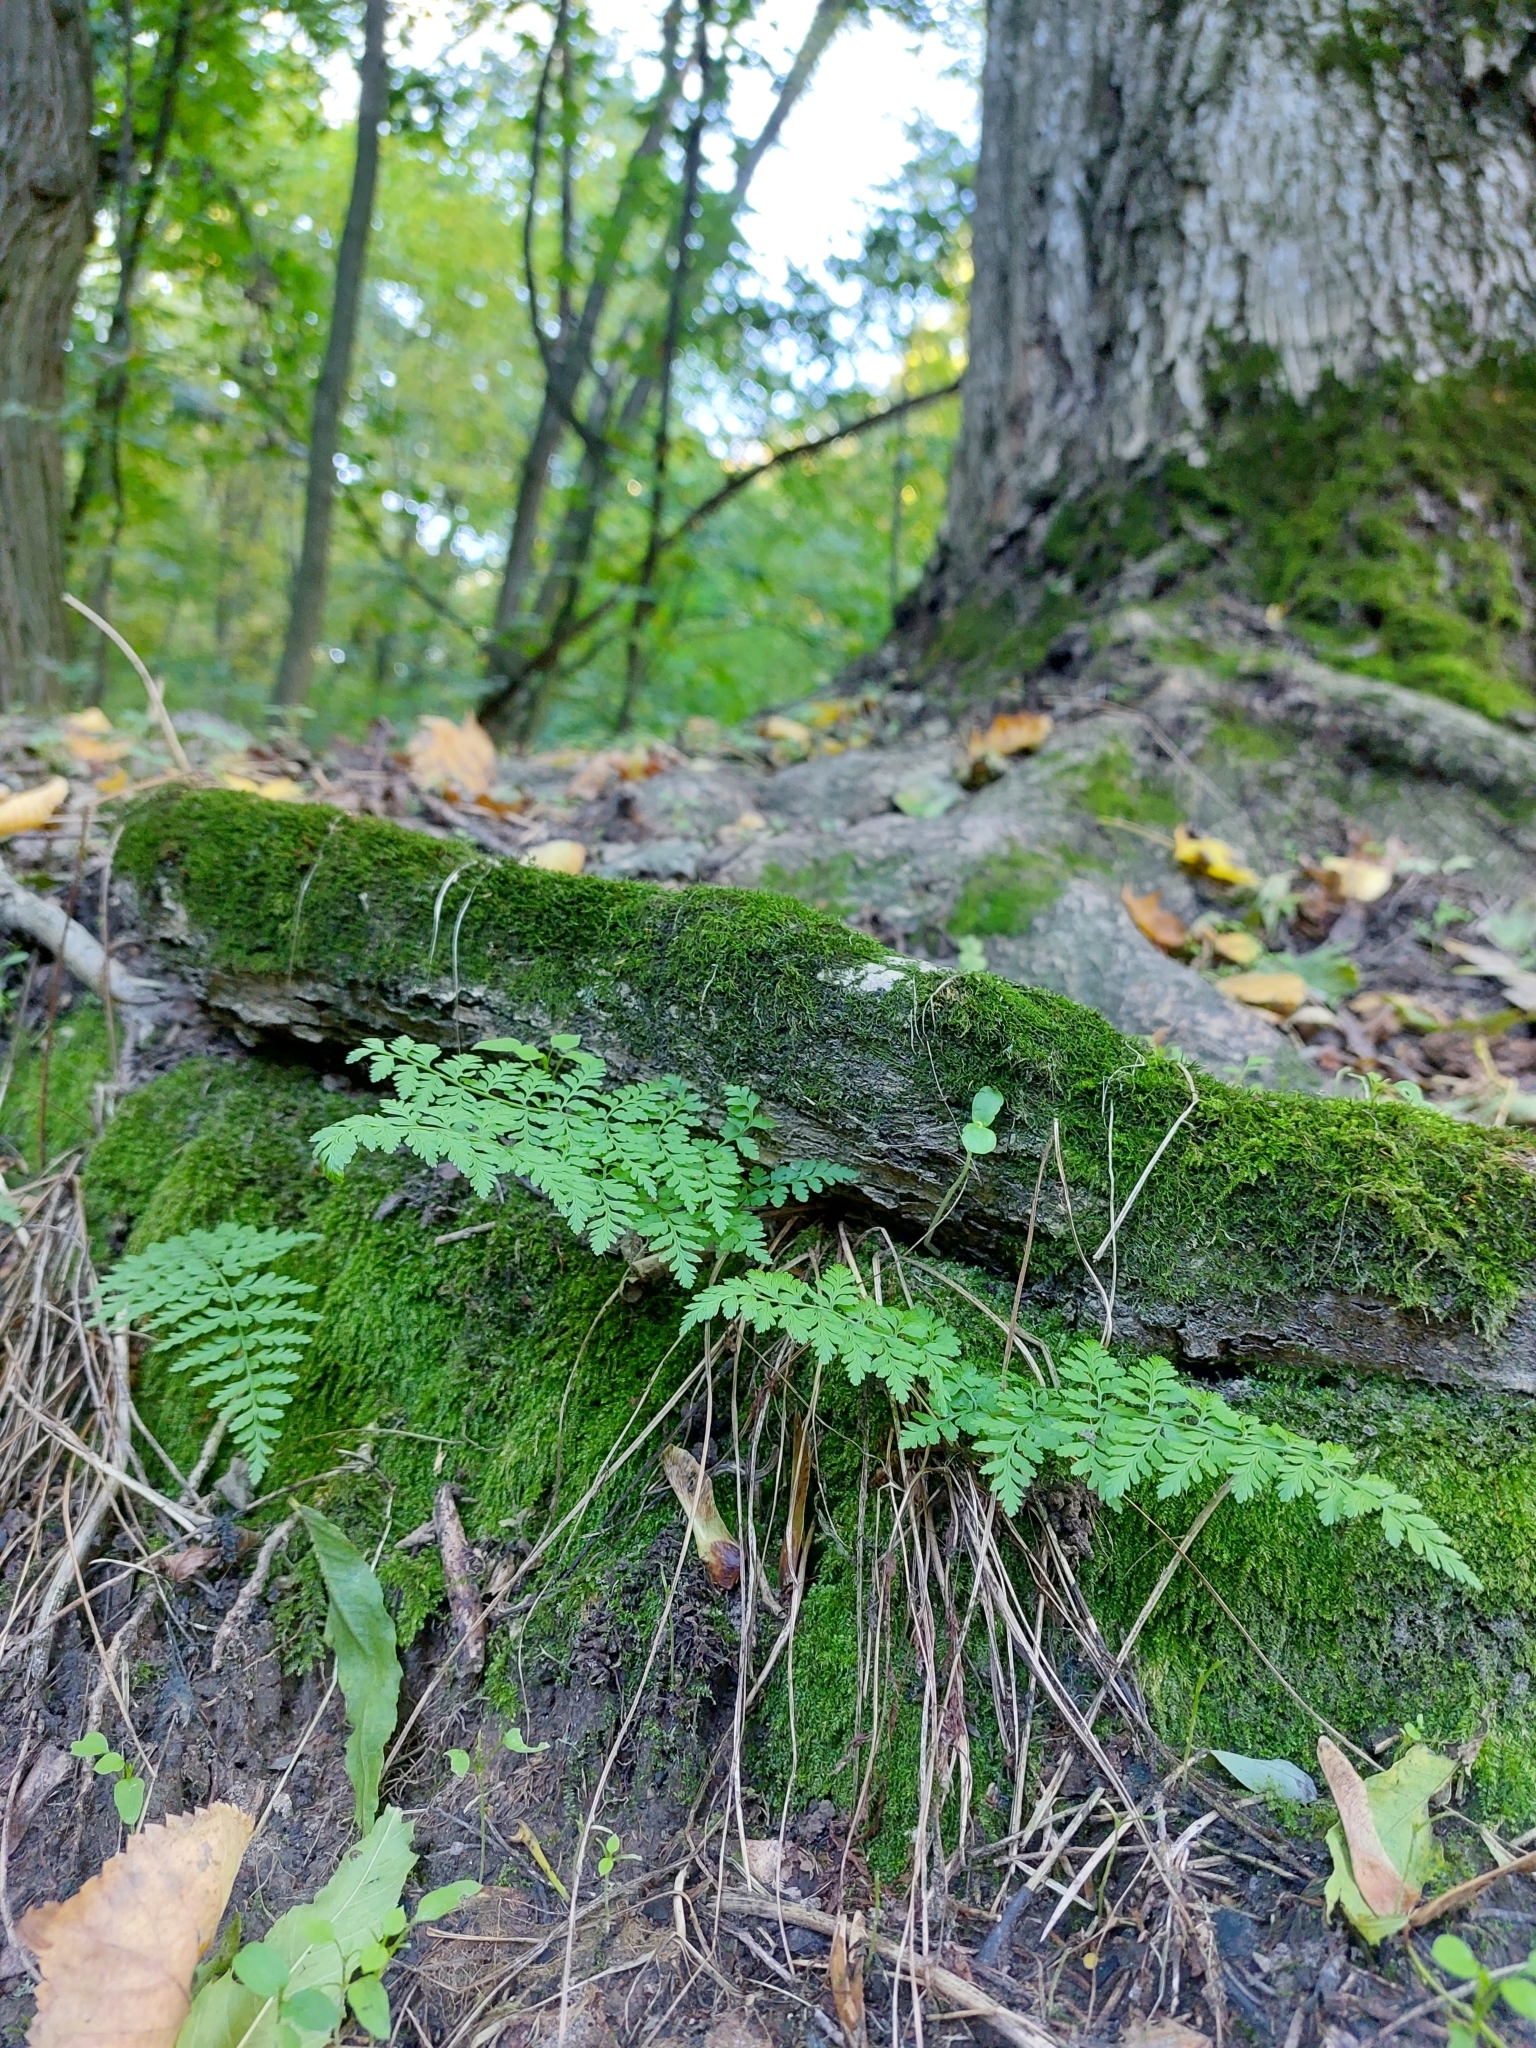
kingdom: Plantae
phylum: Tracheophyta
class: Polypodiopsida
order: Polypodiales
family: Cystopteridaceae
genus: Cystopteris
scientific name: Cystopteris fragilis
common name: Brittle bladder fern
